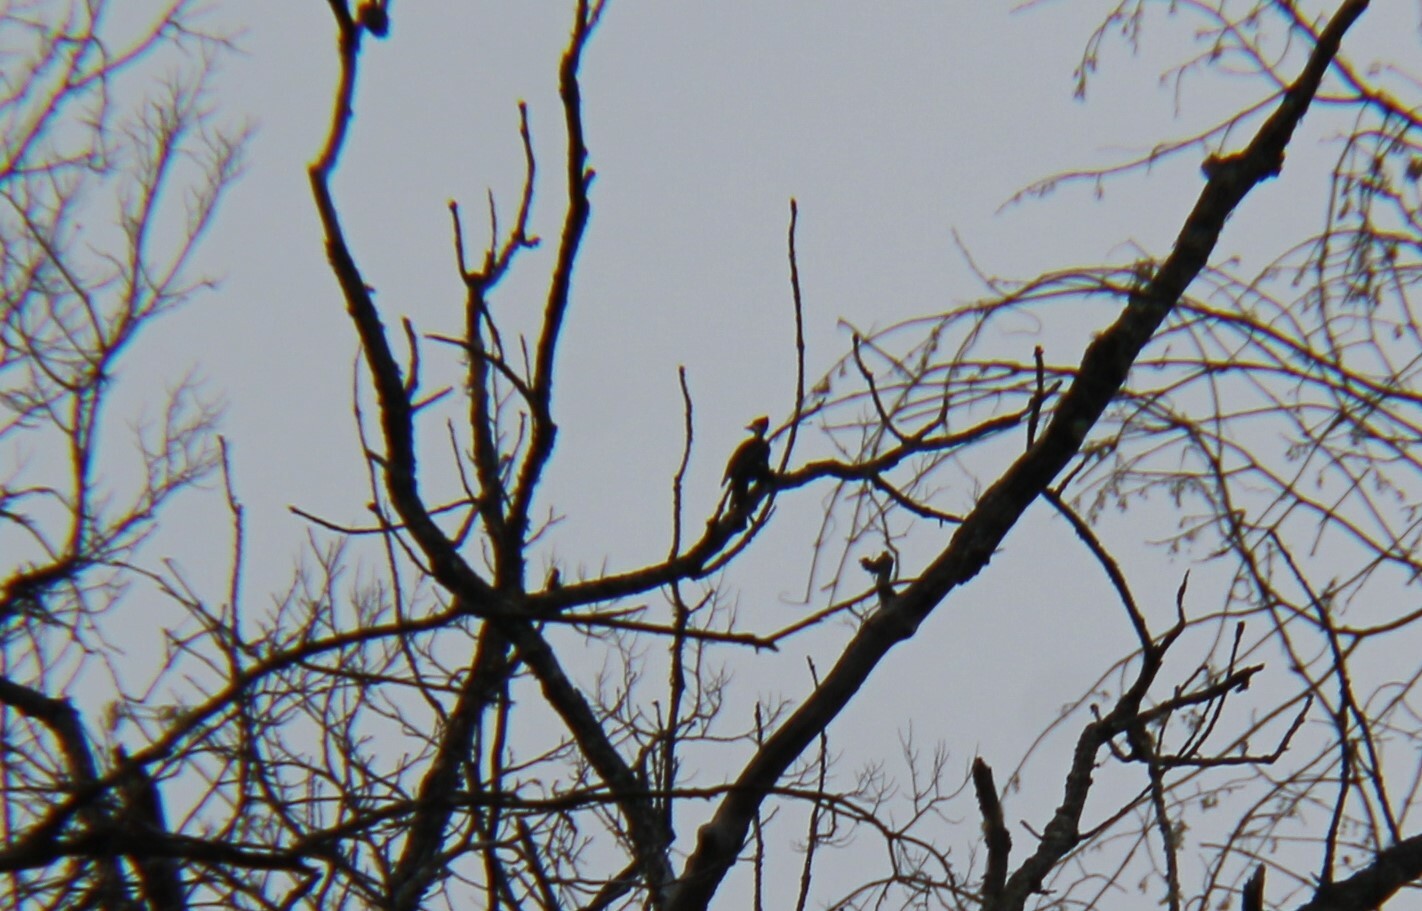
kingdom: Animalia
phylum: Chordata
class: Aves
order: Piciformes
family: Picidae
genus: Dryocopus
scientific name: Dryocopus pileatus
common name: Pileated woodpecker
